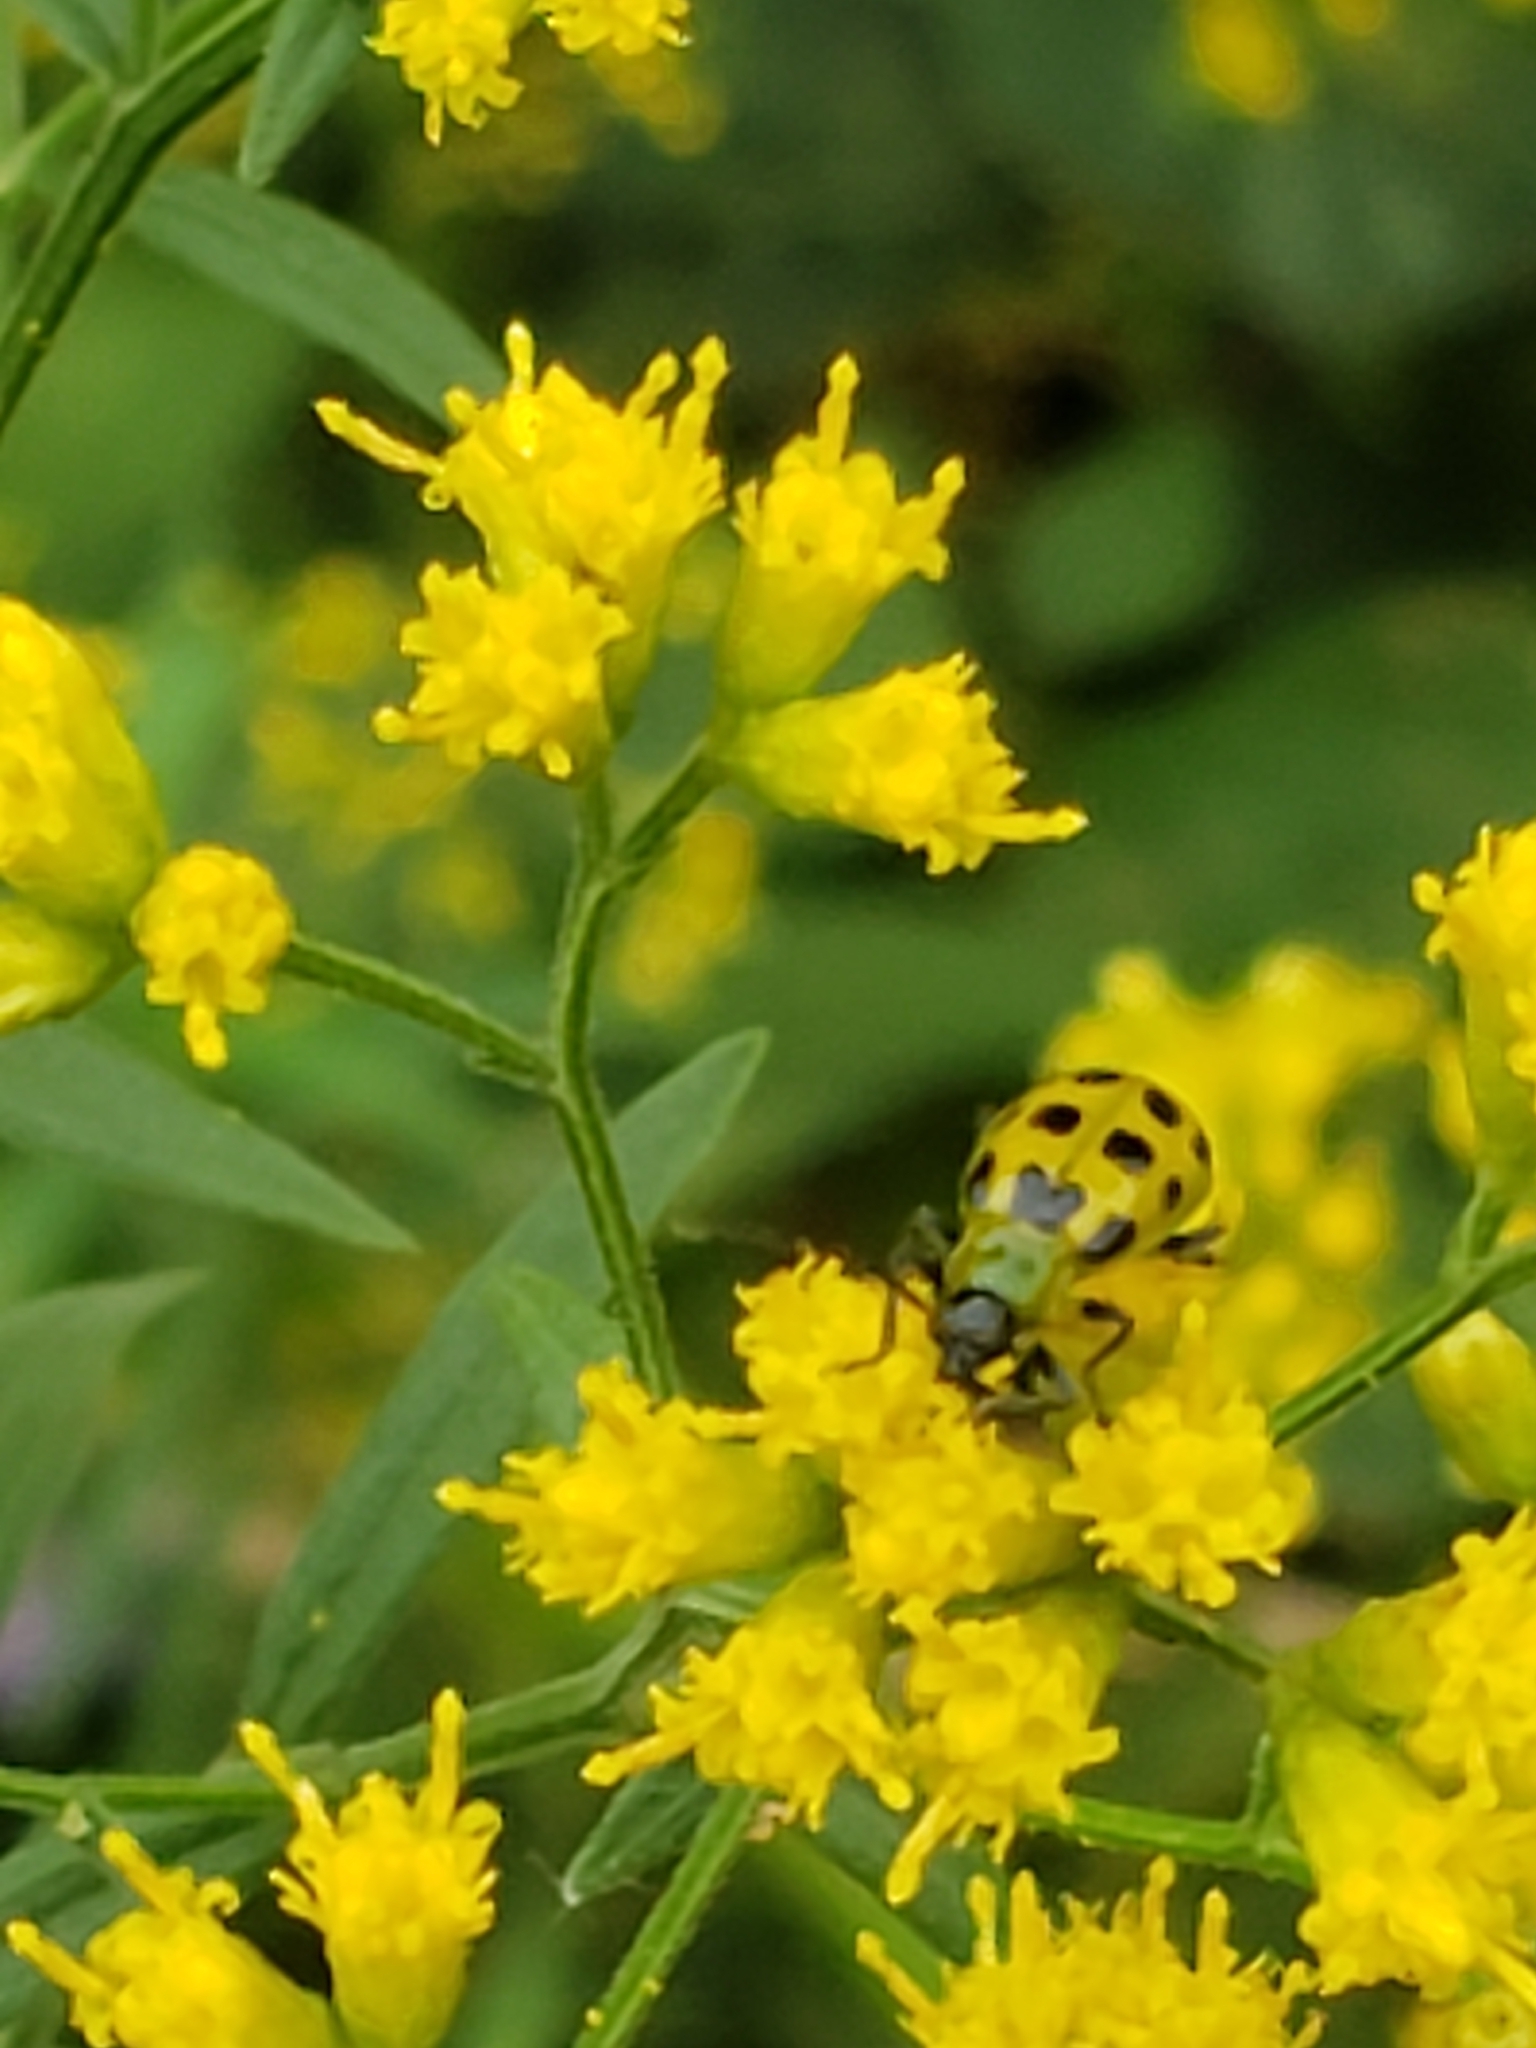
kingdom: Animalia
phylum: Arthropoda
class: Insecta
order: Coleoptera
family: Chrysomelidae
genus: Diabrotica
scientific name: Diabrotica undecimpunctata
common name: Spotted cucumber beetle
